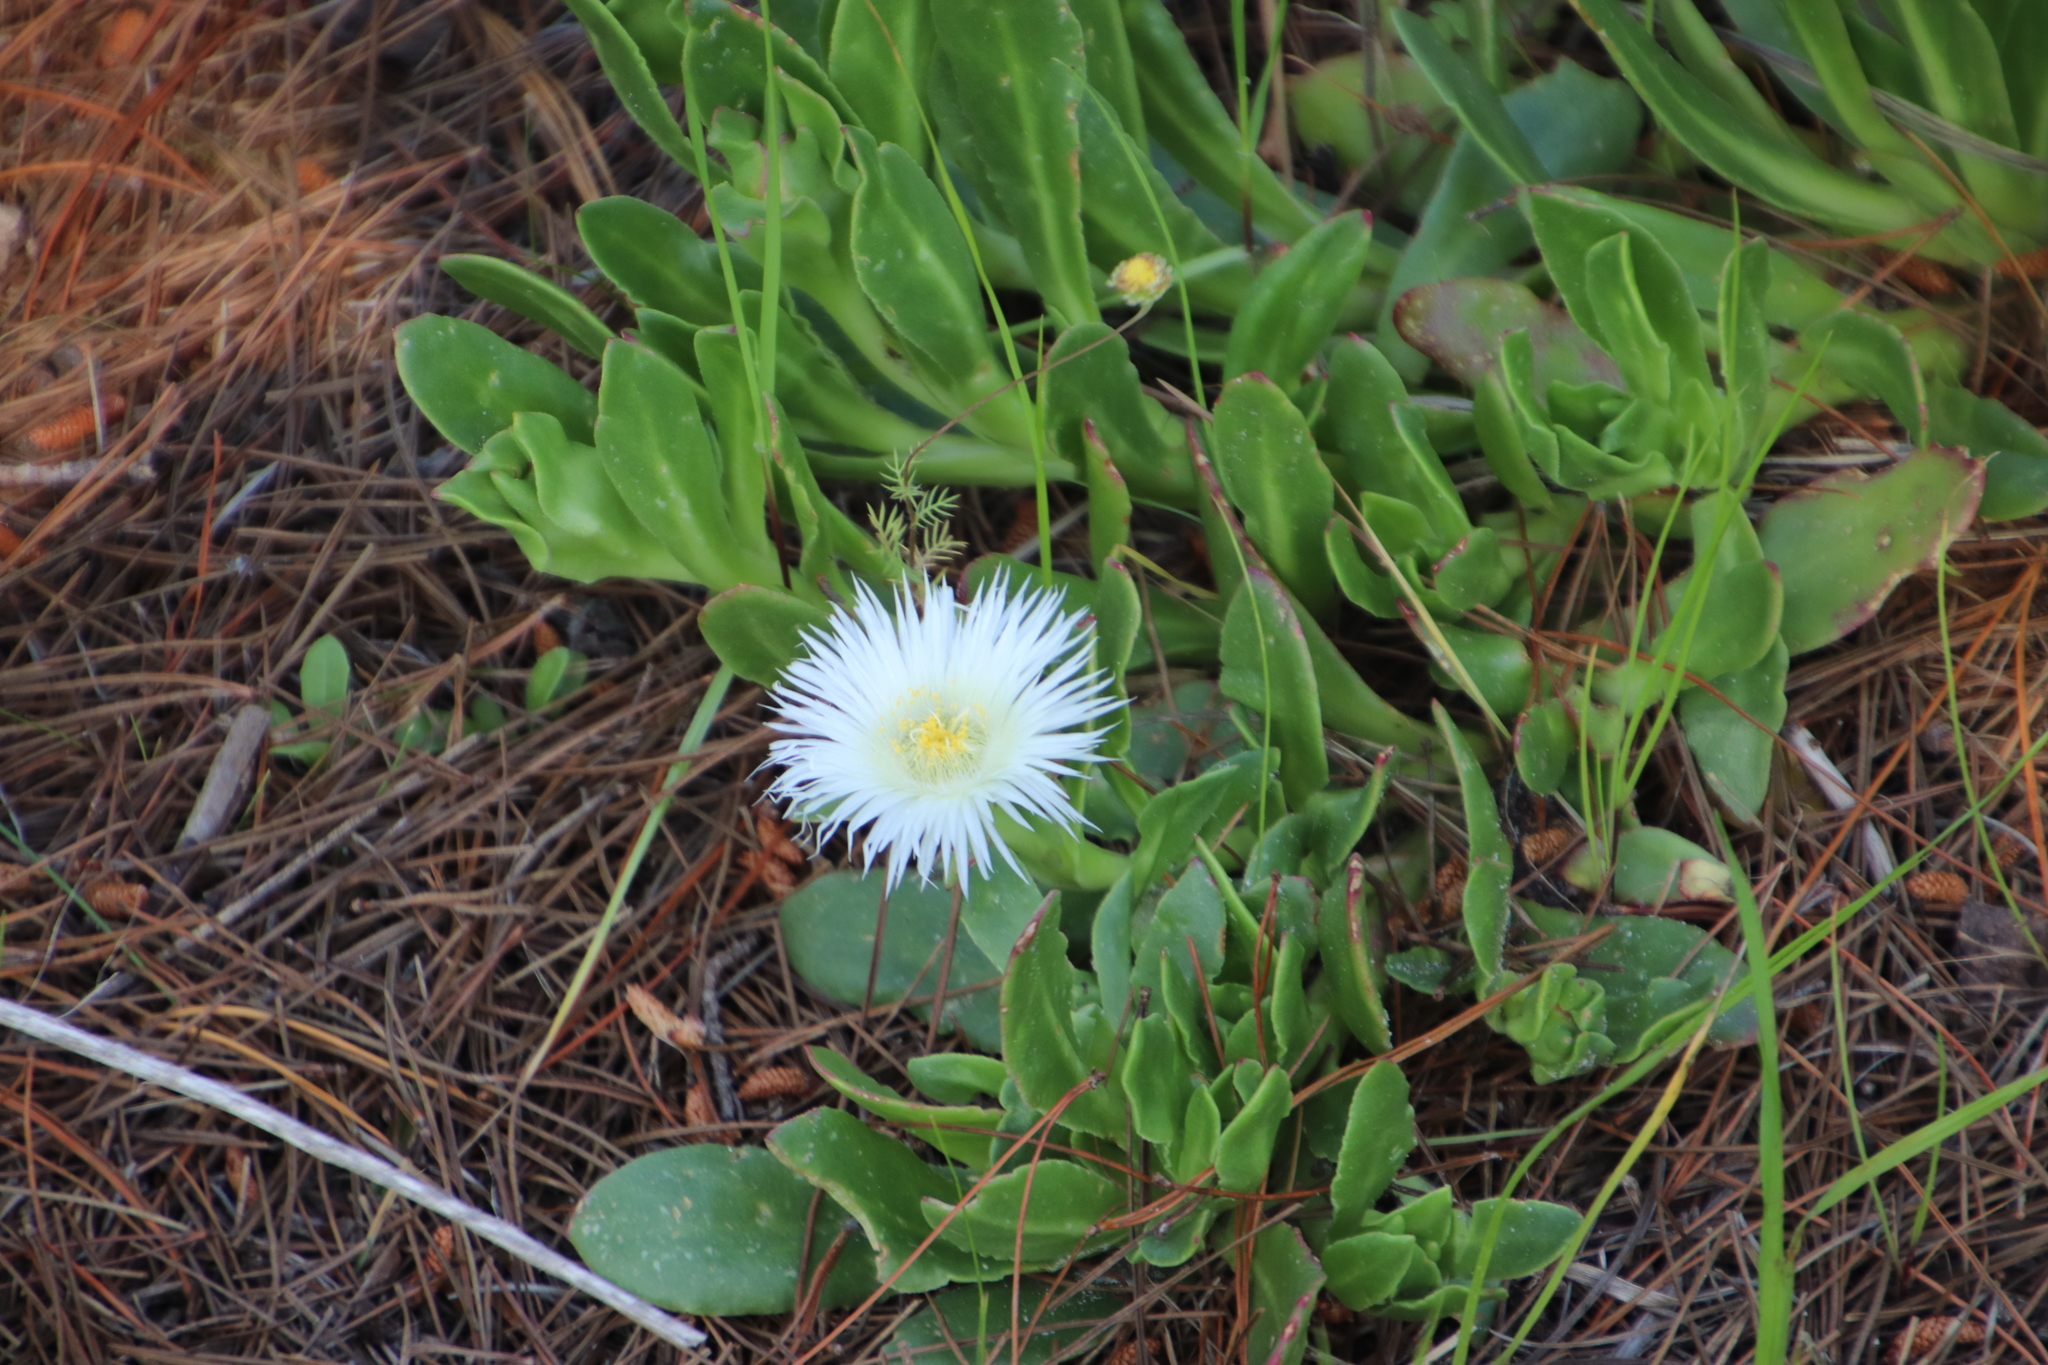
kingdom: Plantae
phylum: Tracheophyta
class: Magnoliopsida
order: Caryophyllales
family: Aizoaceae
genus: Skiatophytum
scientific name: Skiatophytum tripolium
